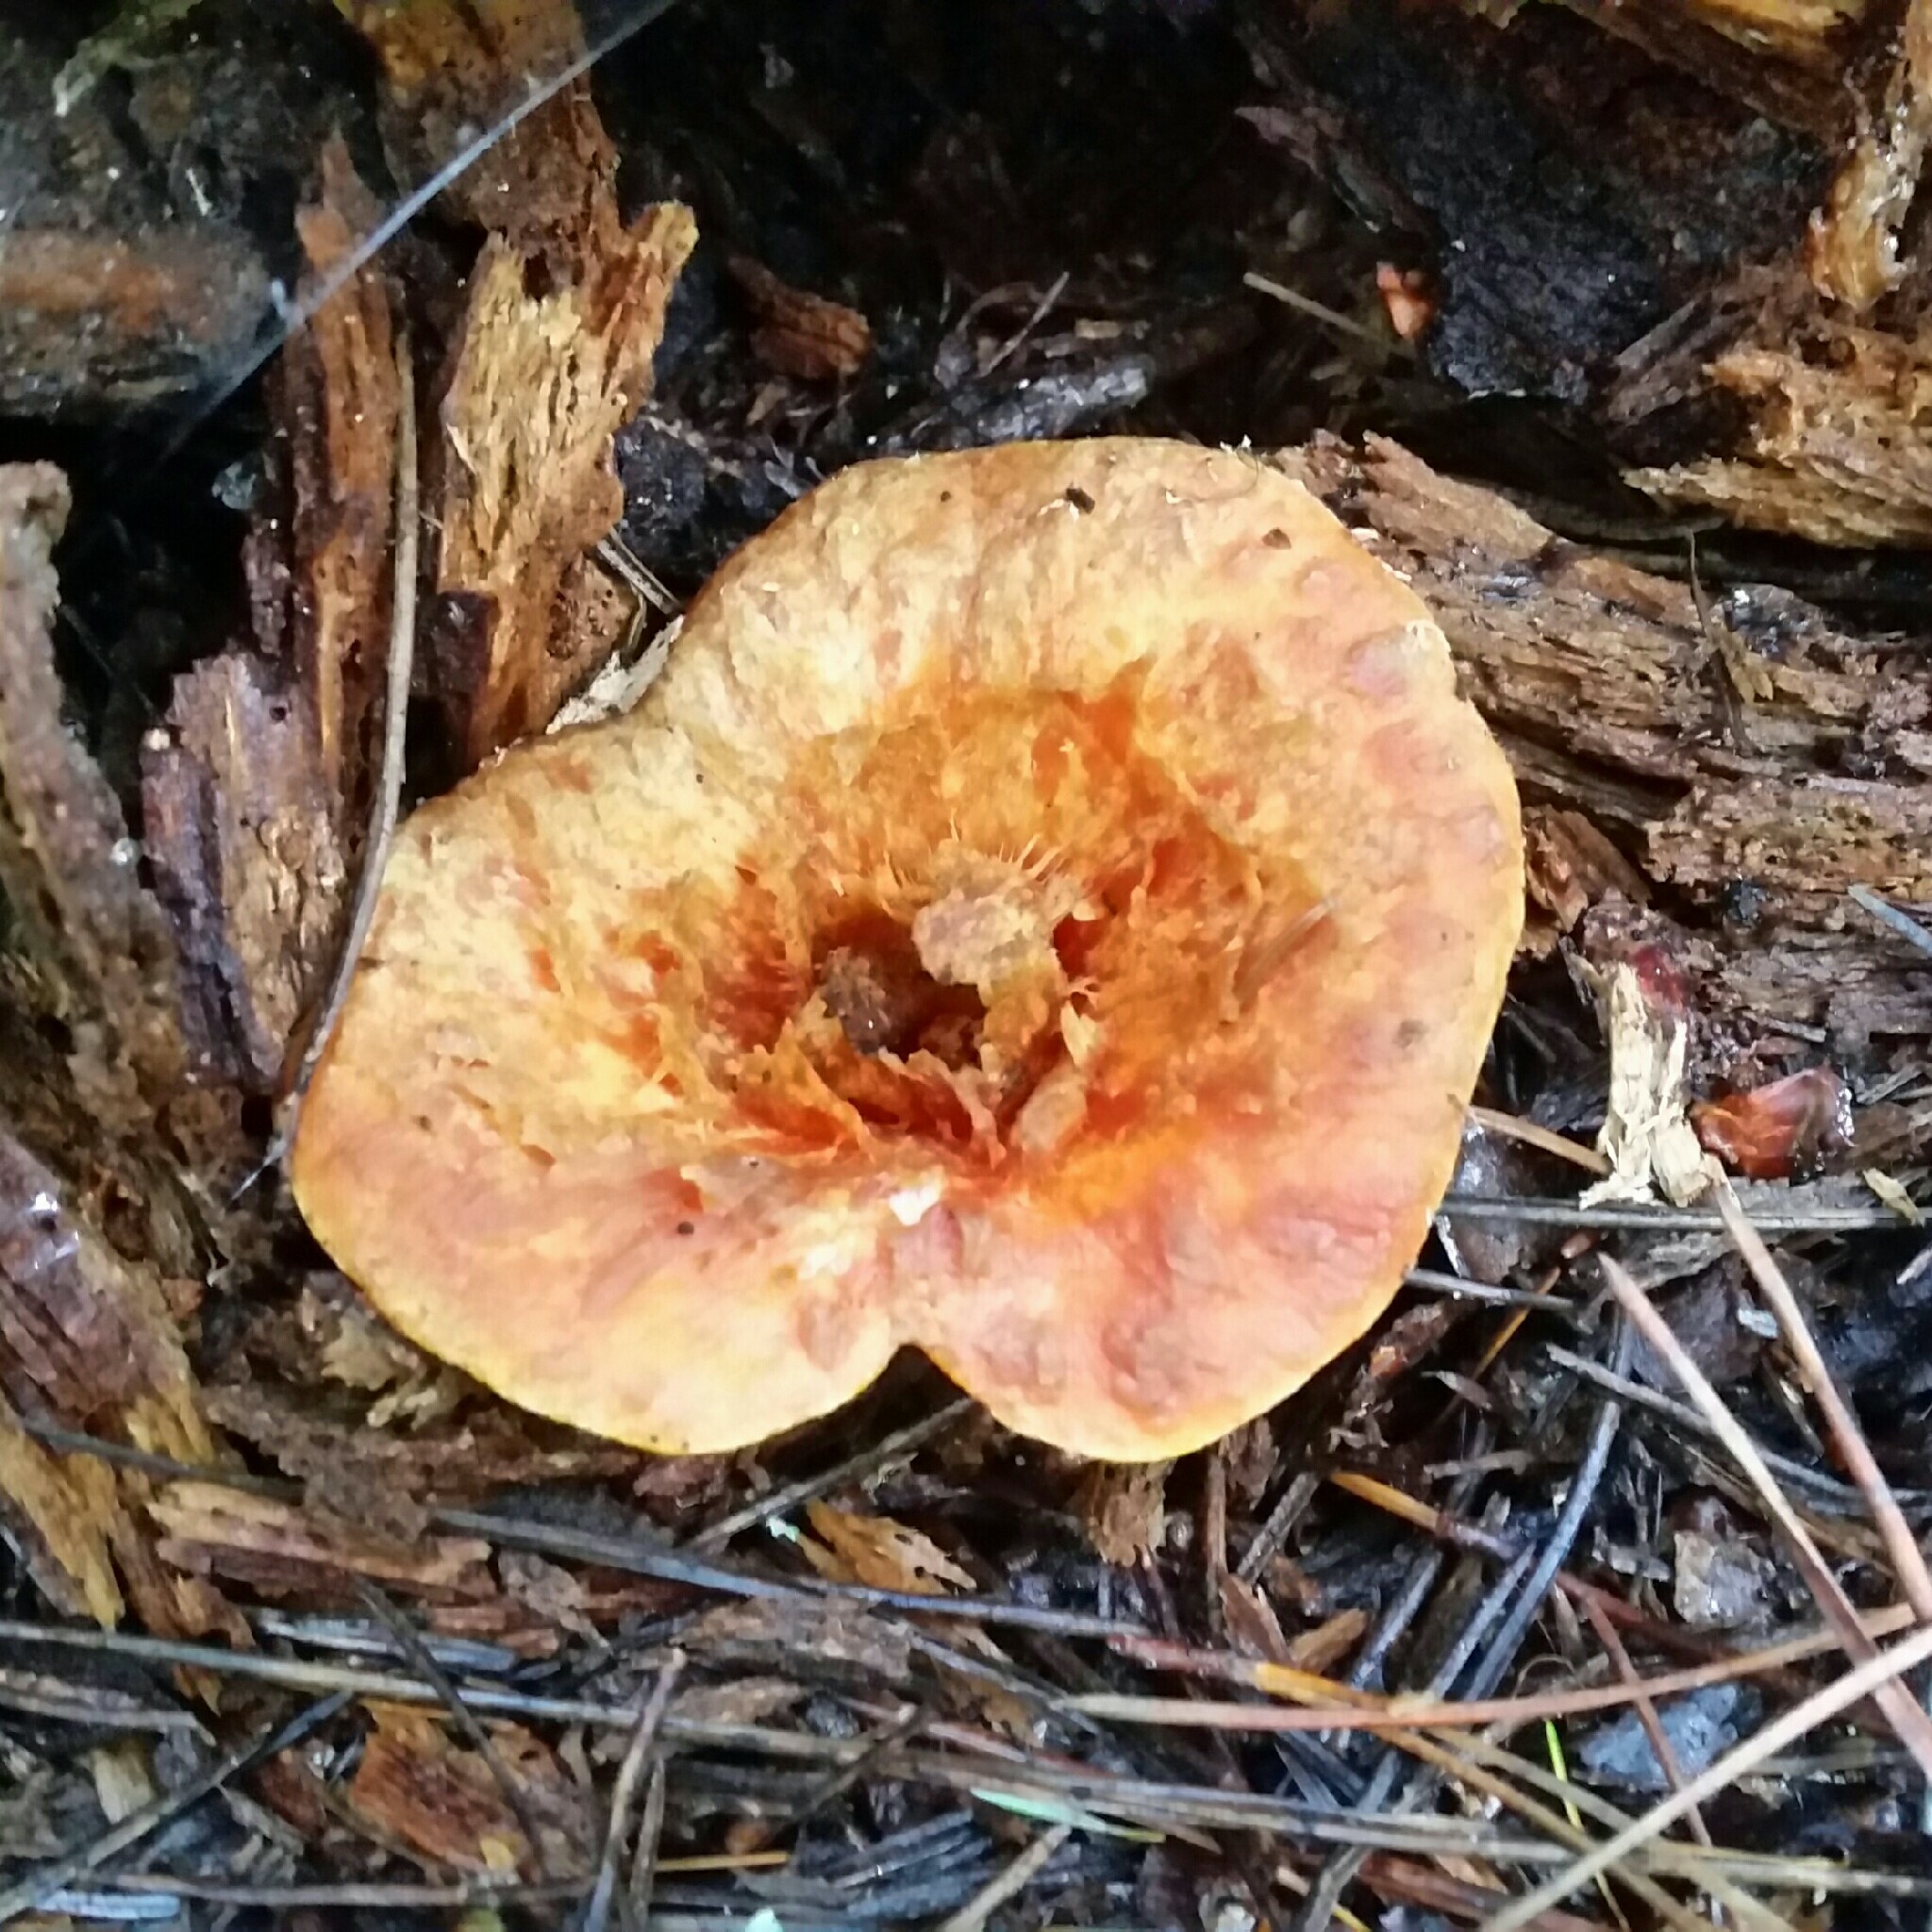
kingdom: Fungi
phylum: Basidiomycota
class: Agaricomycetes
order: Gomphales
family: Gomphaceae
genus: Turbinellus
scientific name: Turbinellus floccosus
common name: Scaly chanterelle
